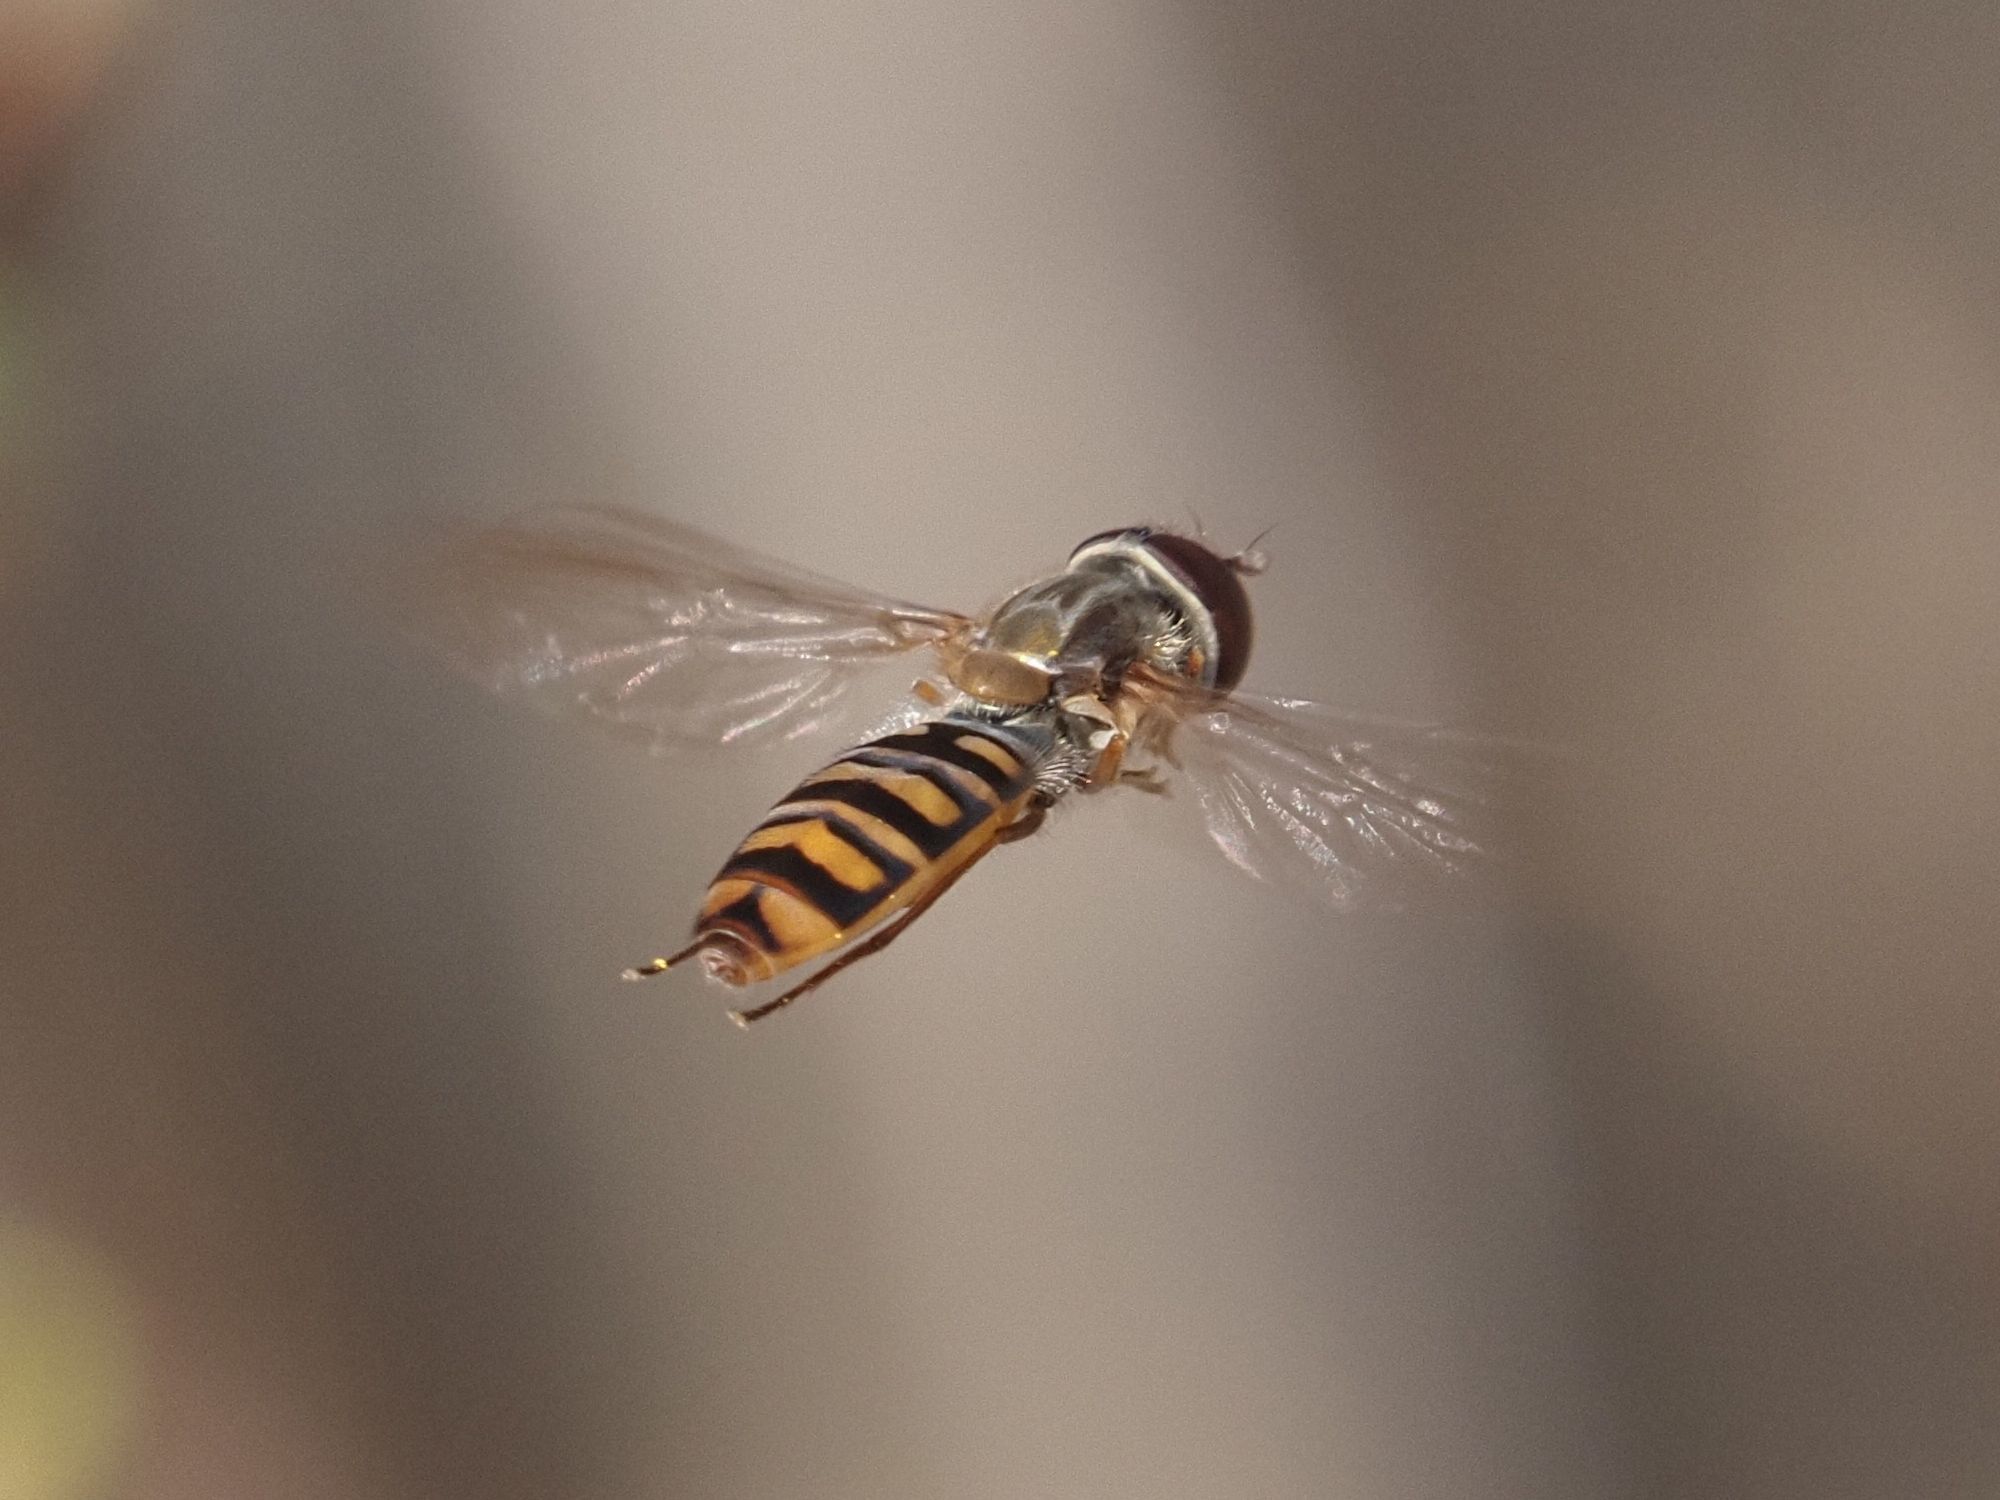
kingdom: Animalia
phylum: Arthropoda
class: Insecta
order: Diptera
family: Syrphidae
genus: Episyrphus
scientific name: Episyrphus balteatus
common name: Marmalade hoverfly
